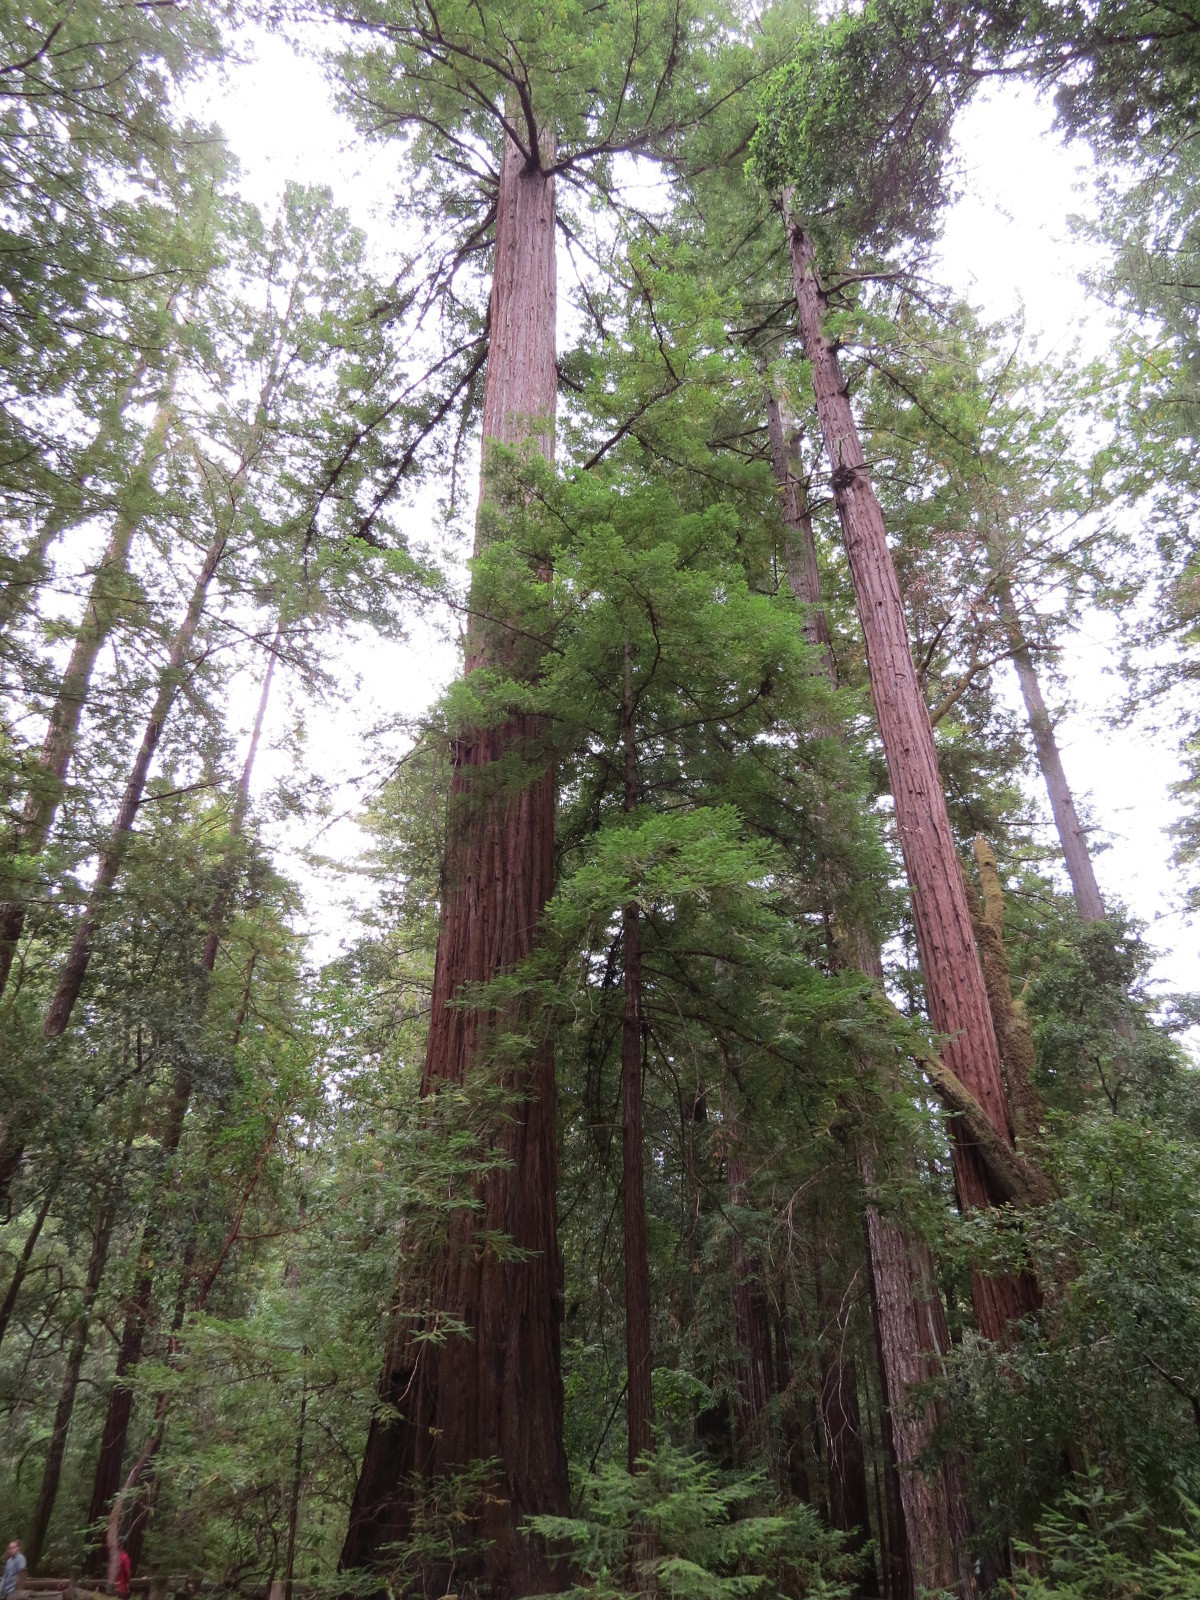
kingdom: Plantae
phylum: Tracheophyta
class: Pinopsida
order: Pinales
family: Cupressaceae
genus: Sequoia
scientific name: Sequoia sempervirens
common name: Coast redwood
